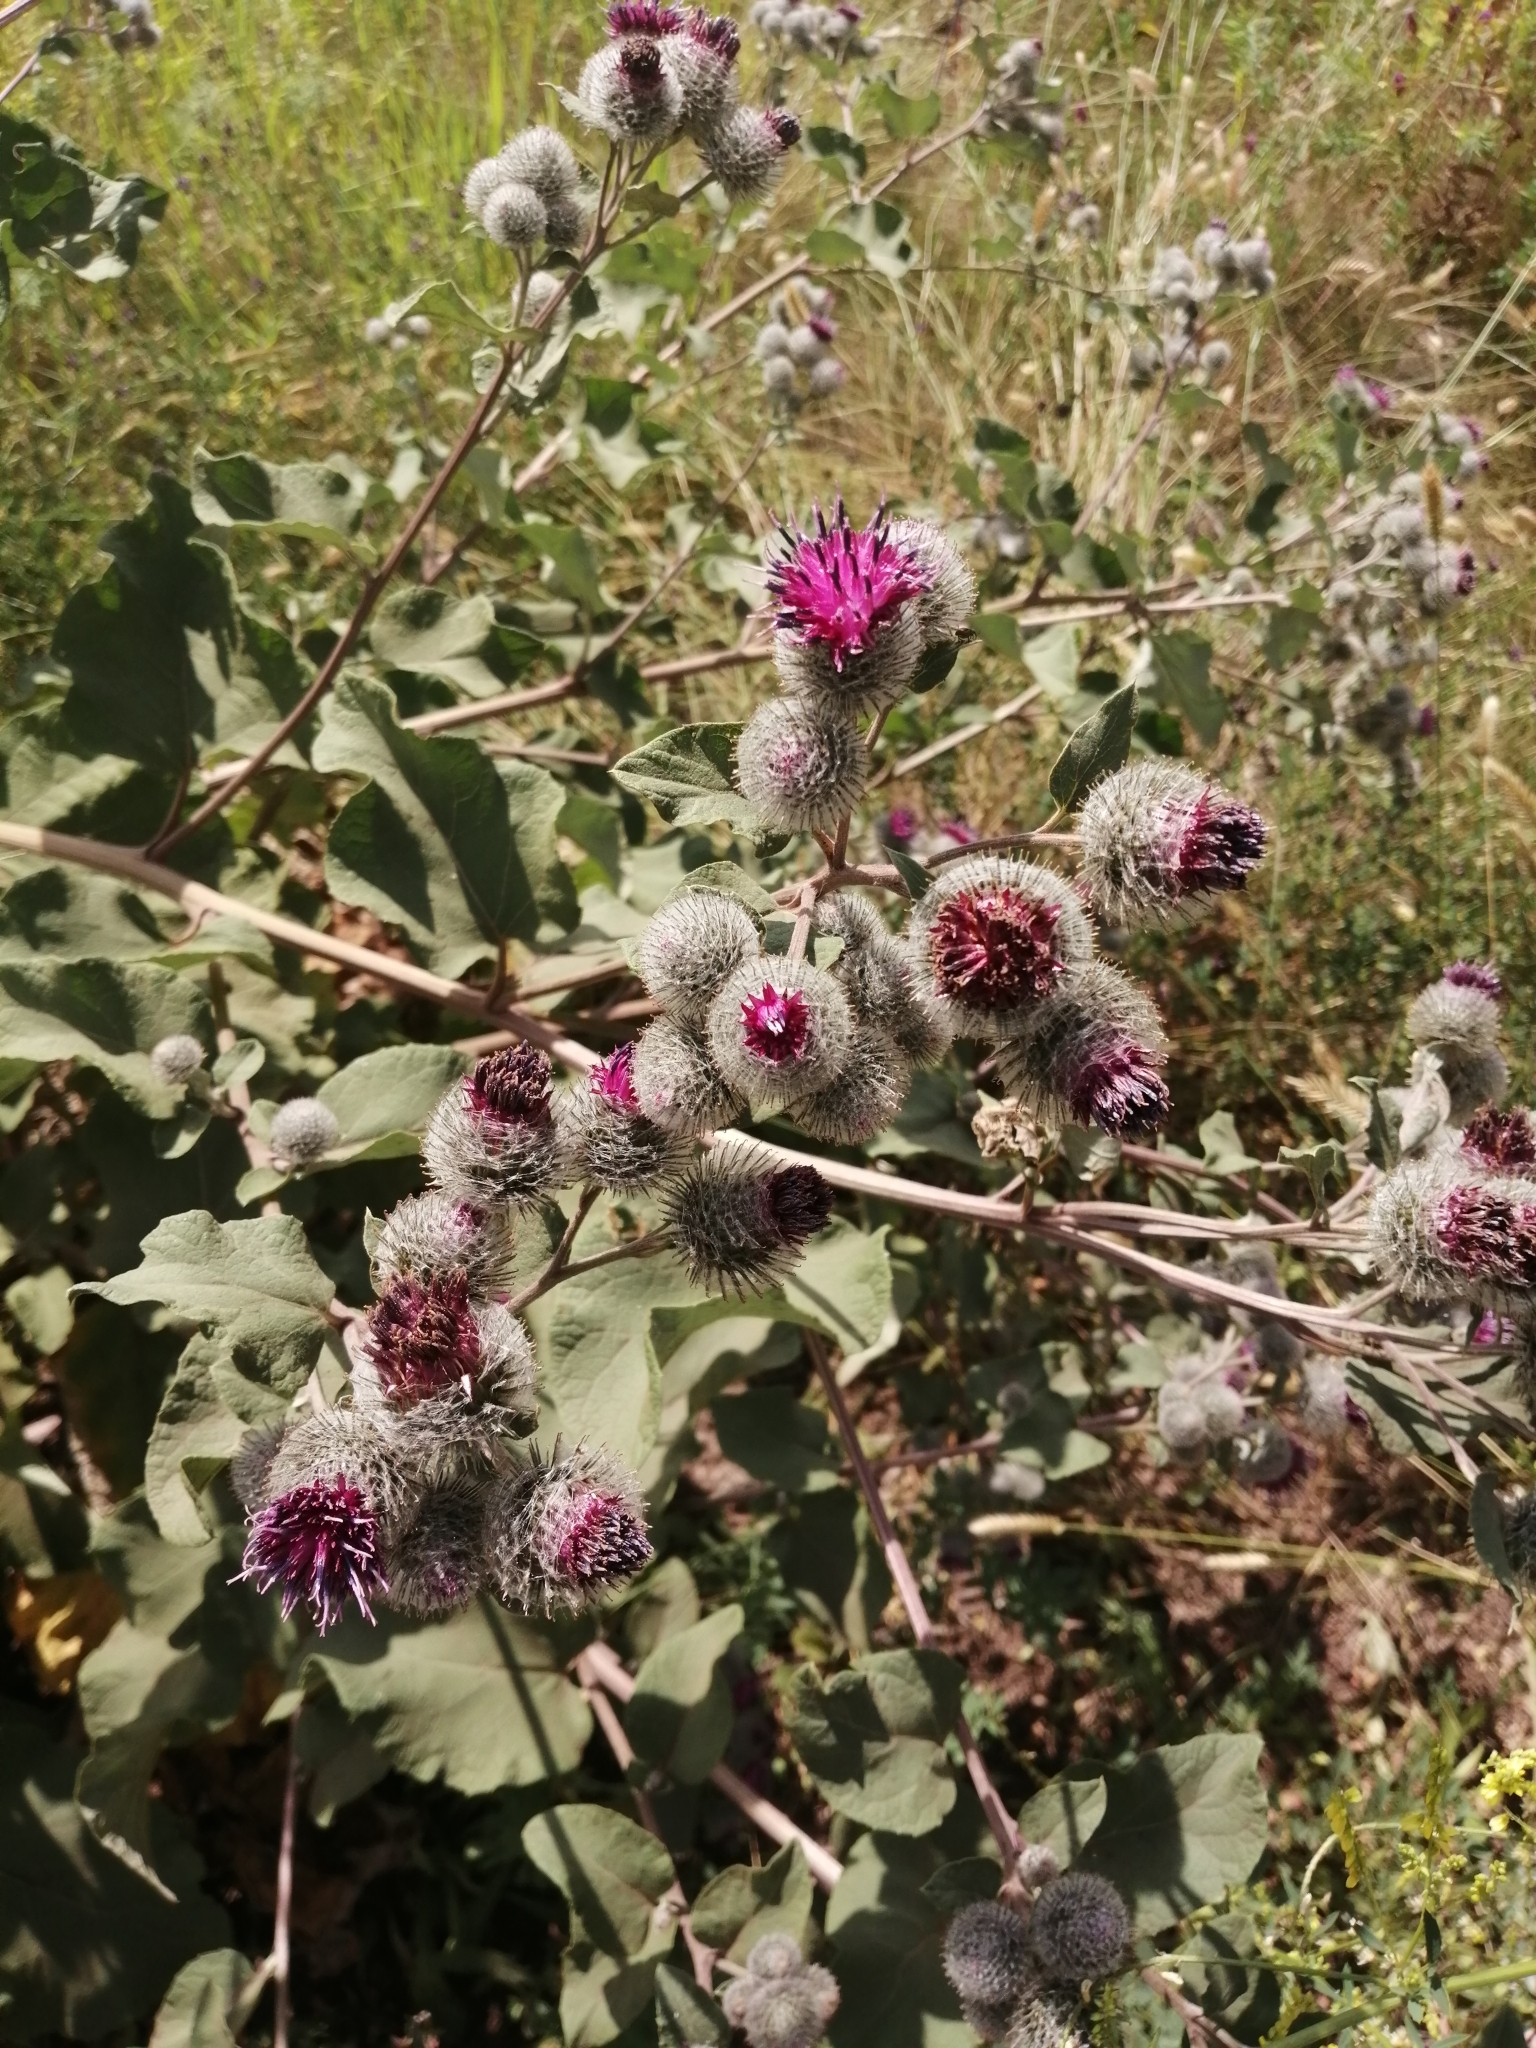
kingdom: Plantae
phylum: Tracheophyta
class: Magnoliopsida
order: Asterales
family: Asteraceae
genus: Arctium
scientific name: Arctium tomentosum
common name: Woolly burdock
